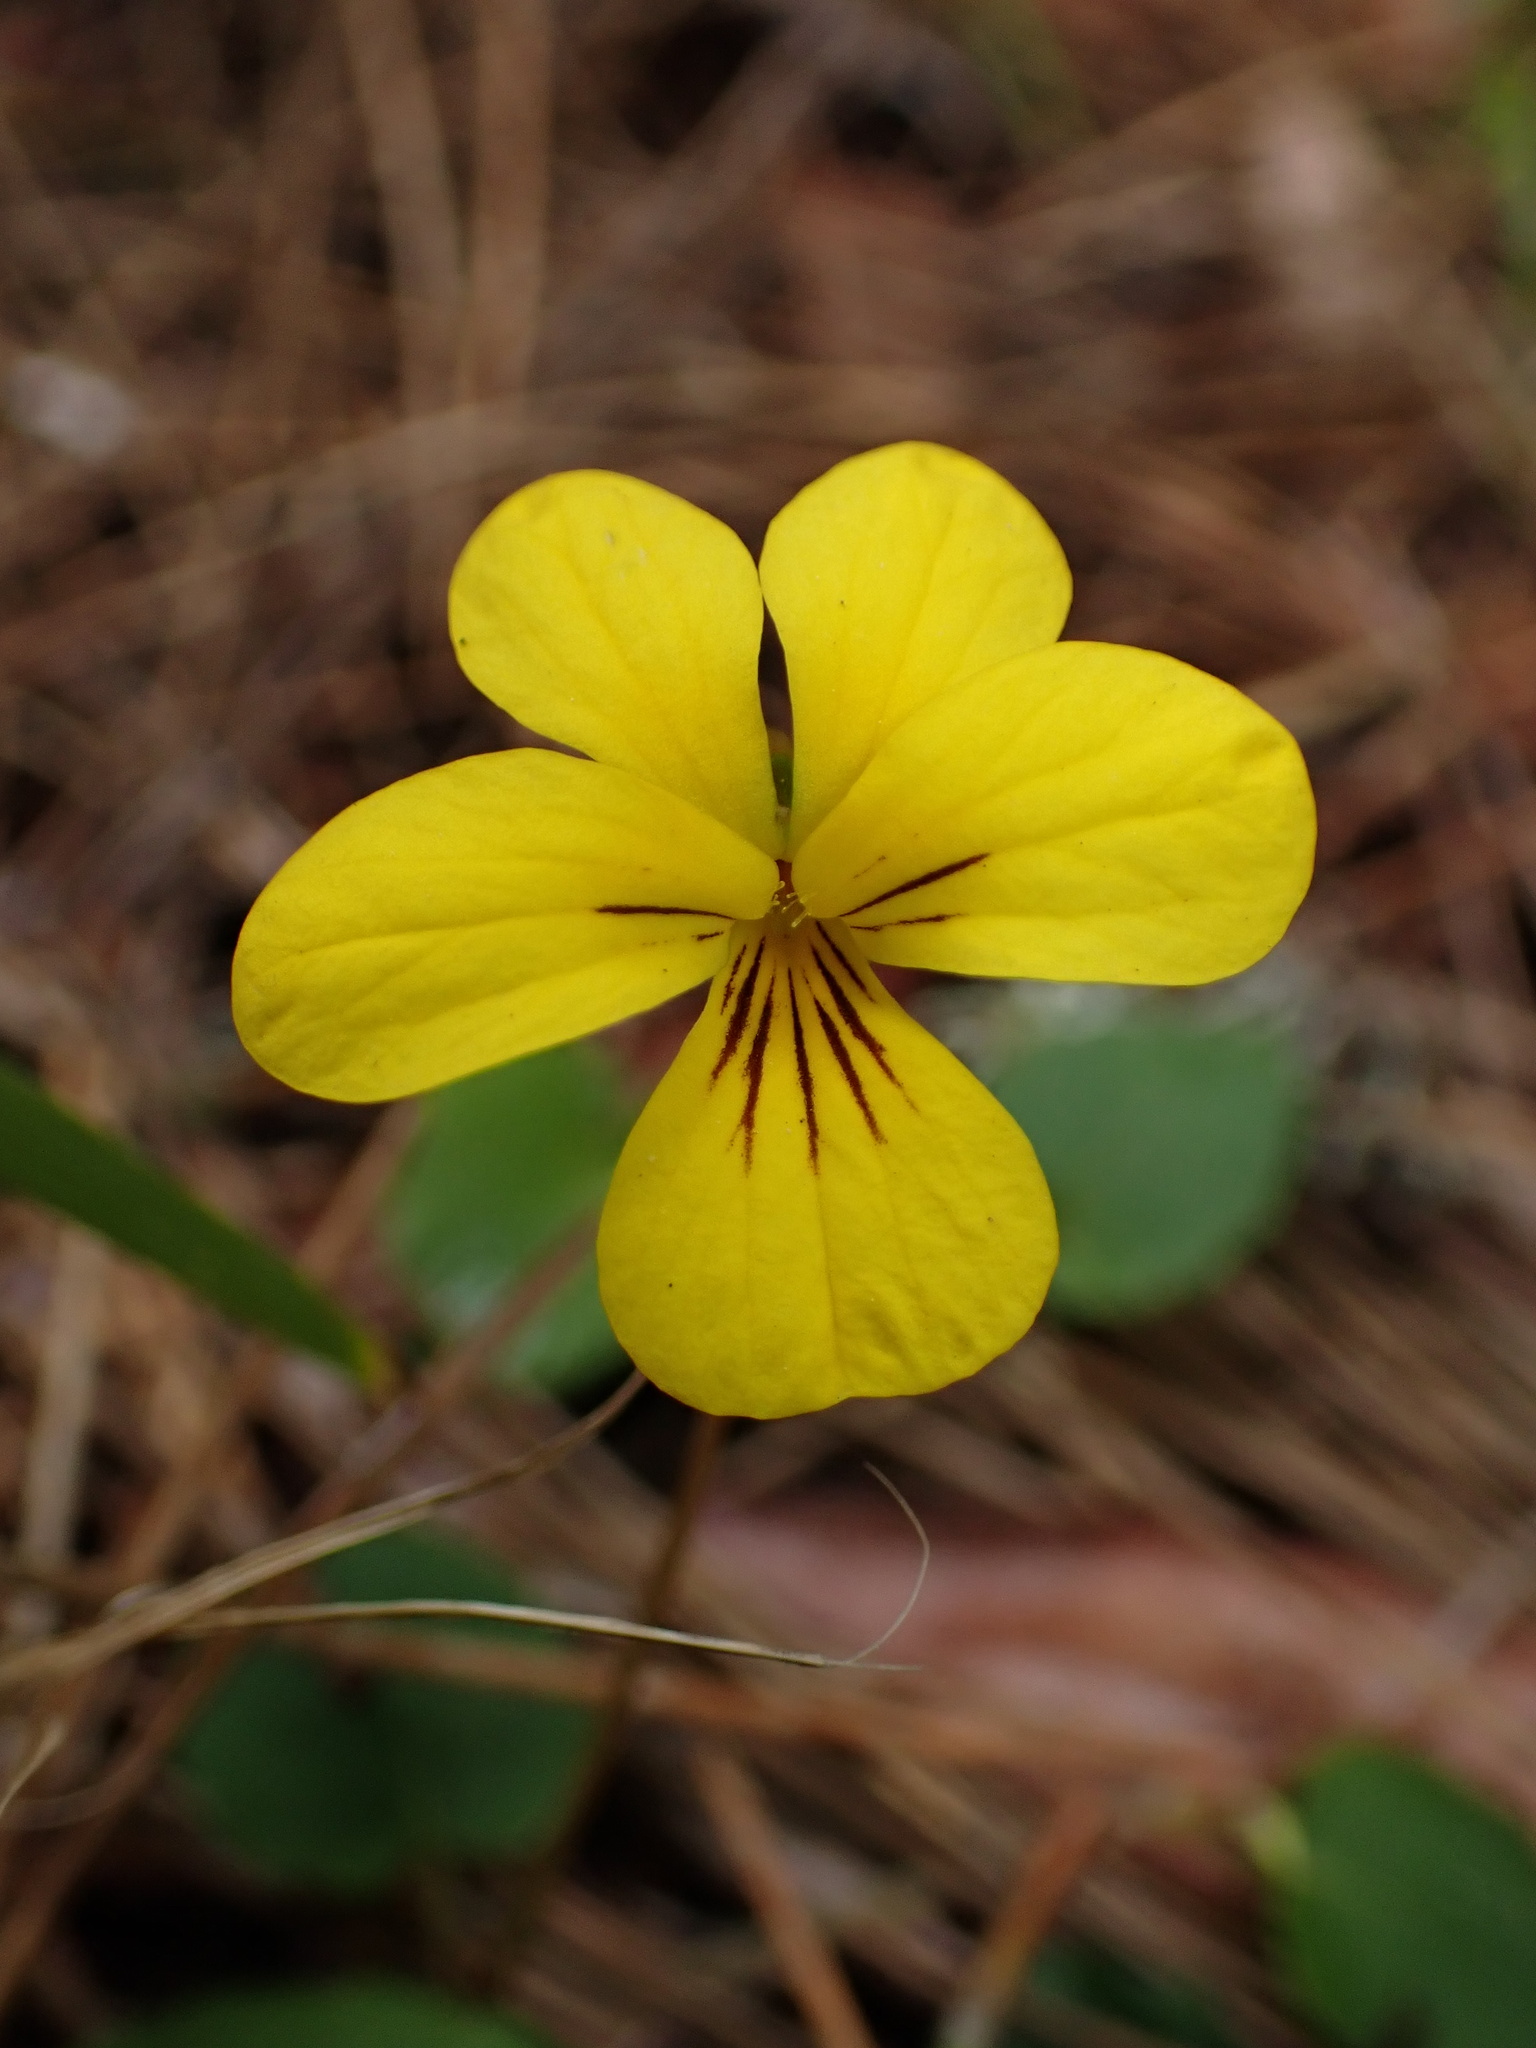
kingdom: Plantae
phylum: Tracheophyta
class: Magnoliopsida
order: Malpighiales
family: Violaceae
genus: Viola
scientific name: Viola sempervirens
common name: Evergreen violet
